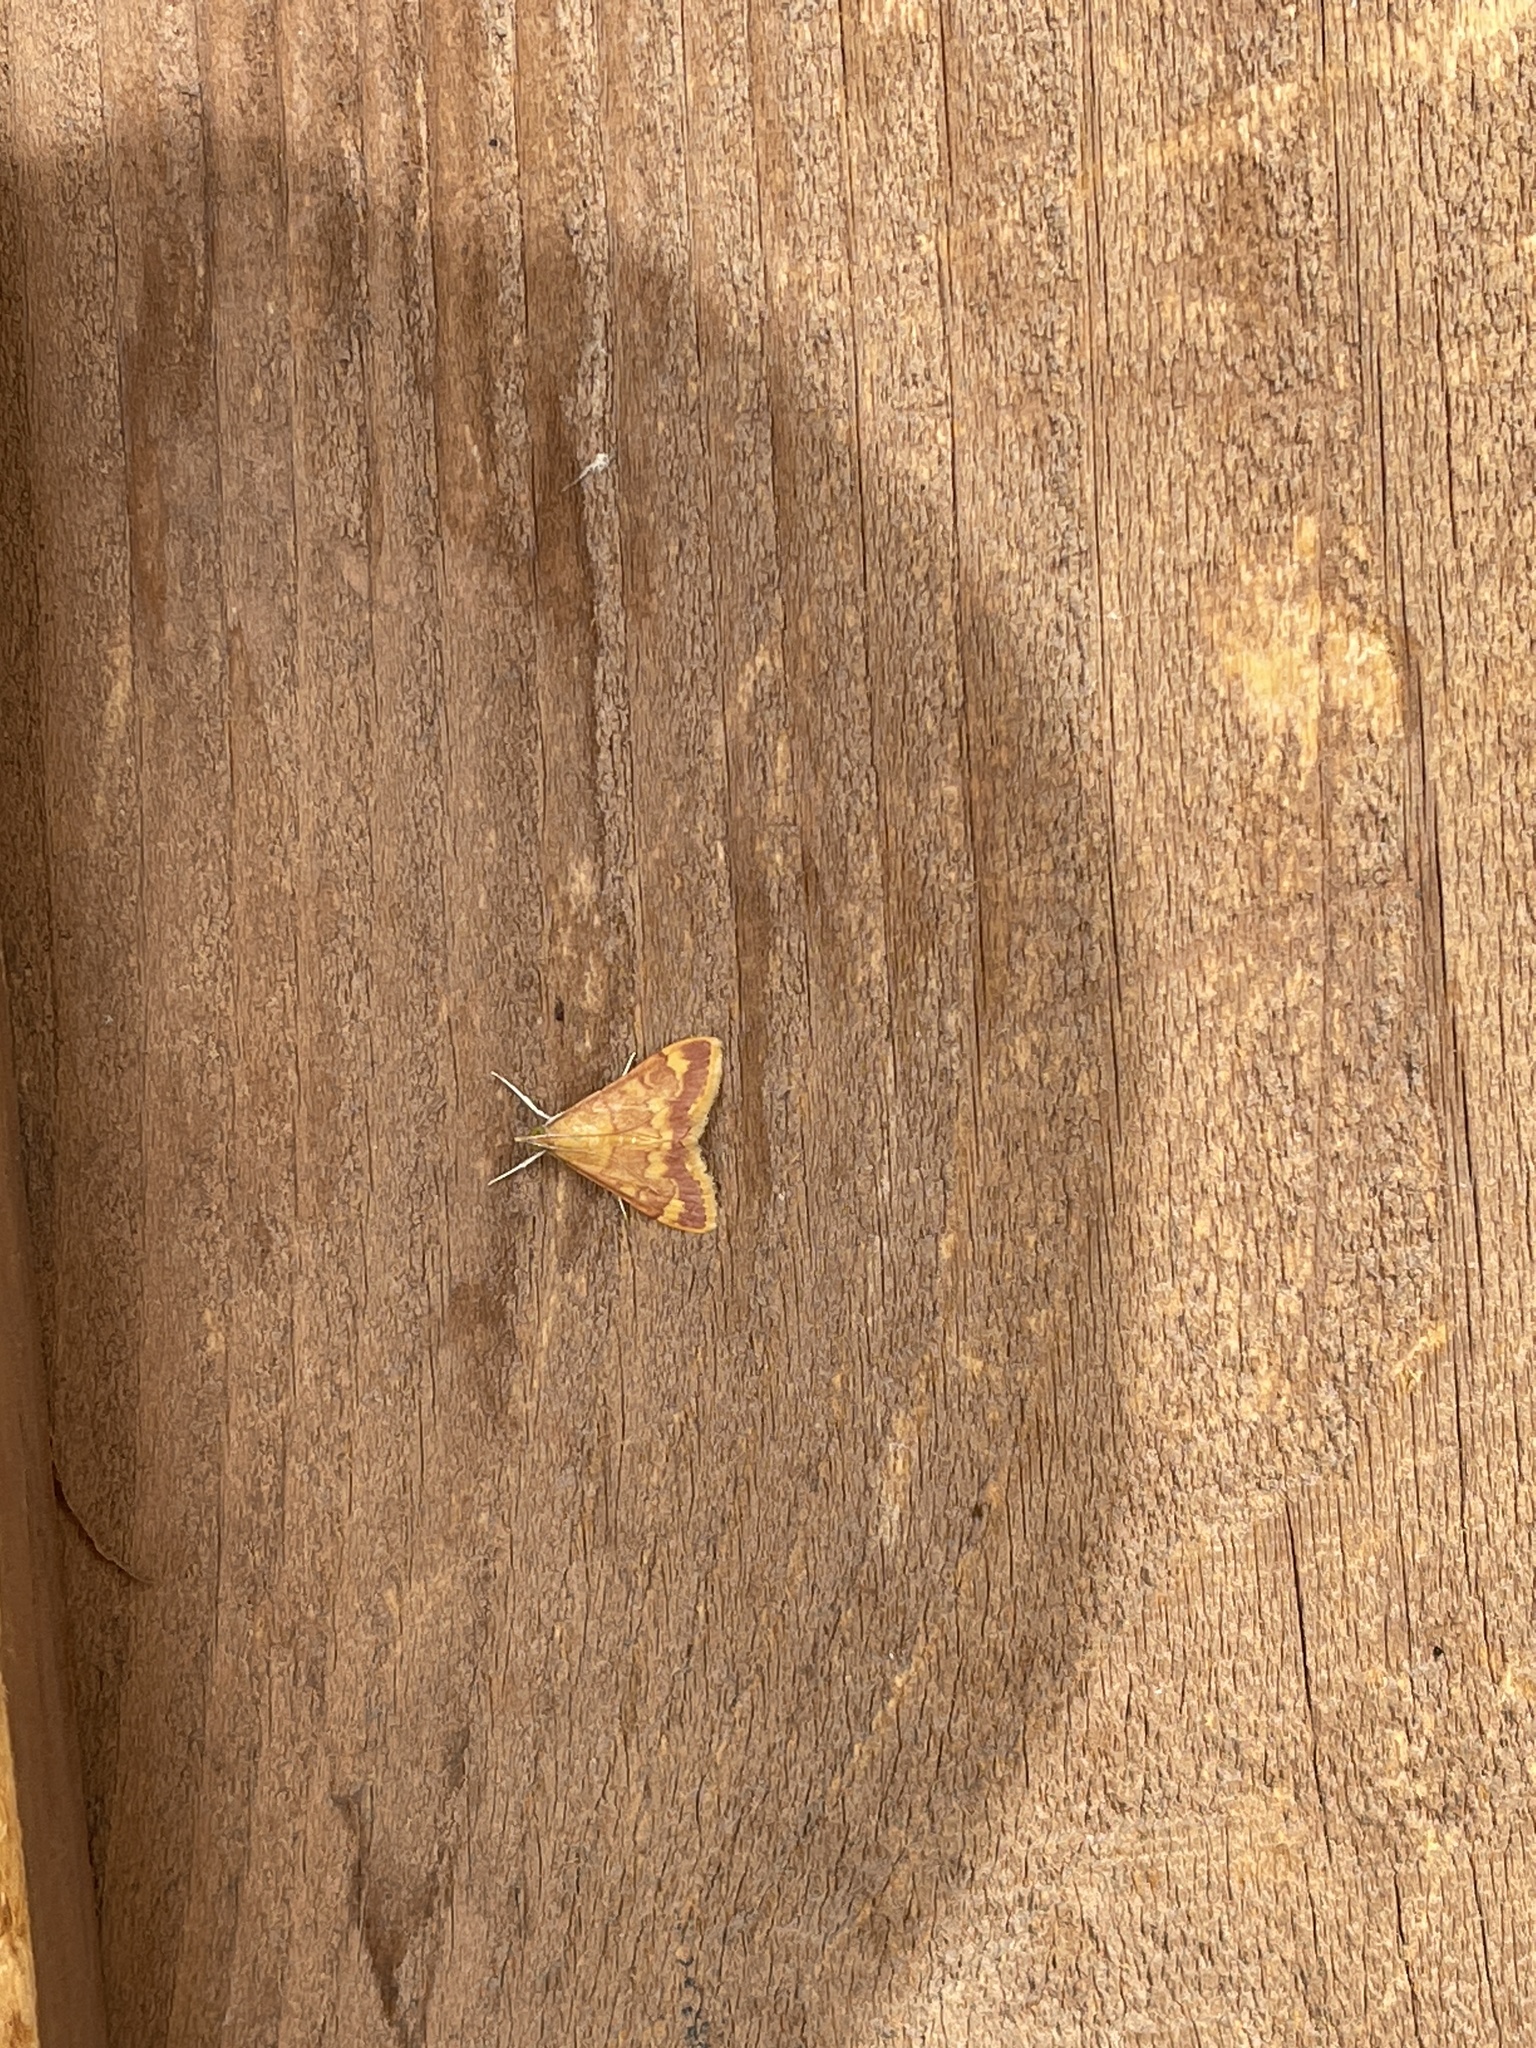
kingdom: Animalia
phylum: Arthropoda
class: Insecta
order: Lepidoptera
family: Crambidae
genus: Pyrausta
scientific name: Pyrausta pseudonythesalis
